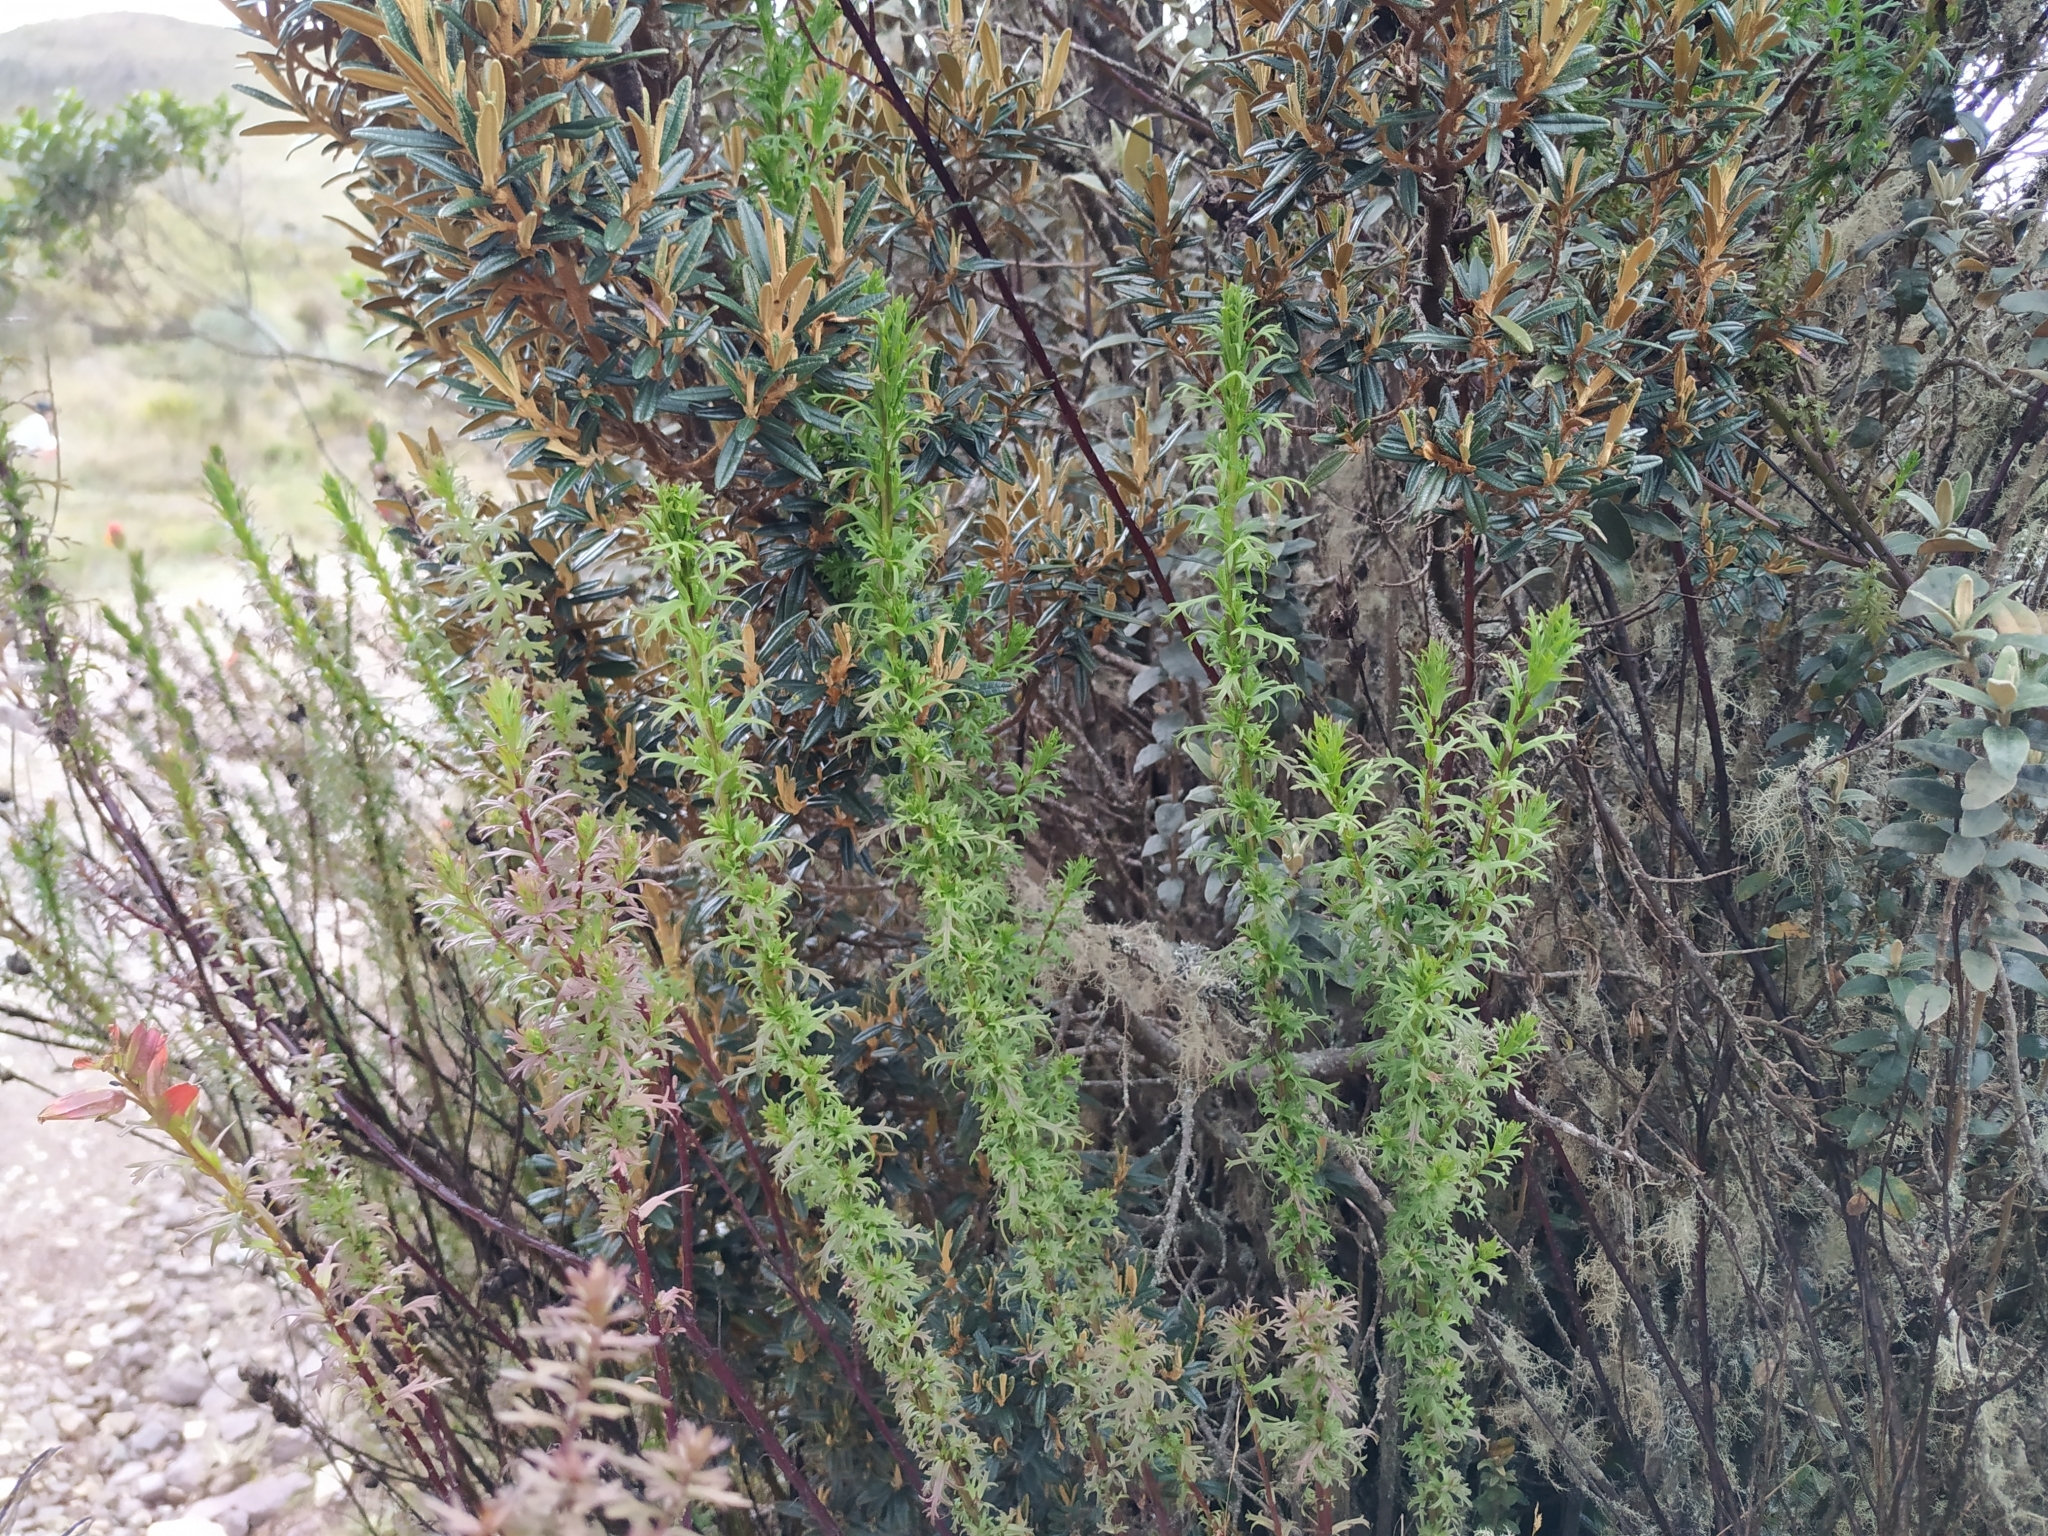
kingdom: Plantae
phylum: Tracheophyta
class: Magnoliopsida
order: Lamiales
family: Orobanchaceae
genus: Castilleja
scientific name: Castilleja fissifolia
